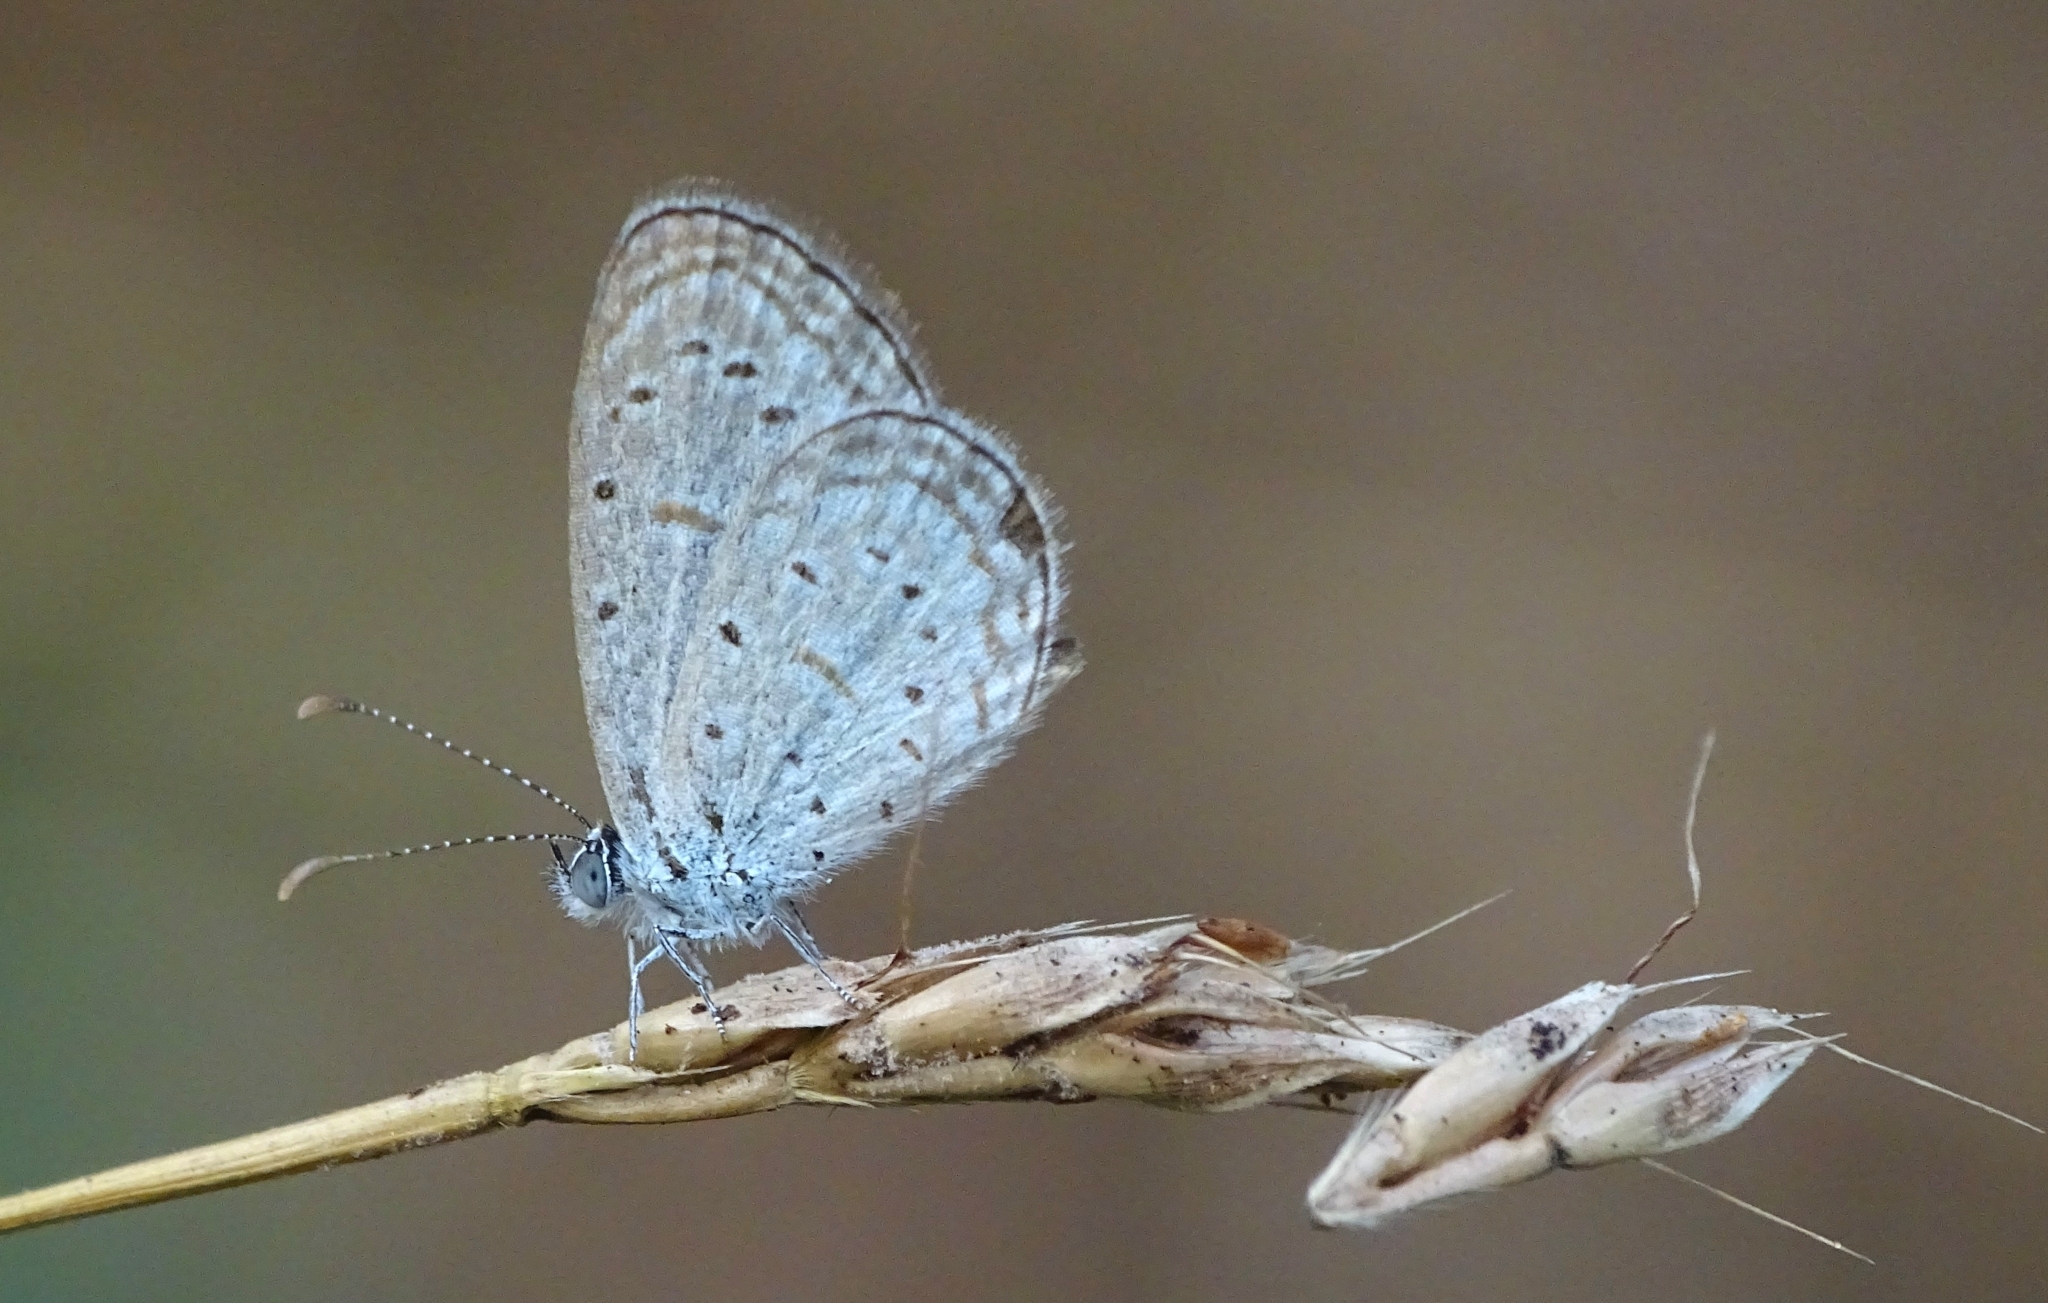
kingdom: Animalia
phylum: Arthropoda
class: Insecta
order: Lepidoptera
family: Lycaenidae
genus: Zizula
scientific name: Zizula hylax
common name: Gaika blue
